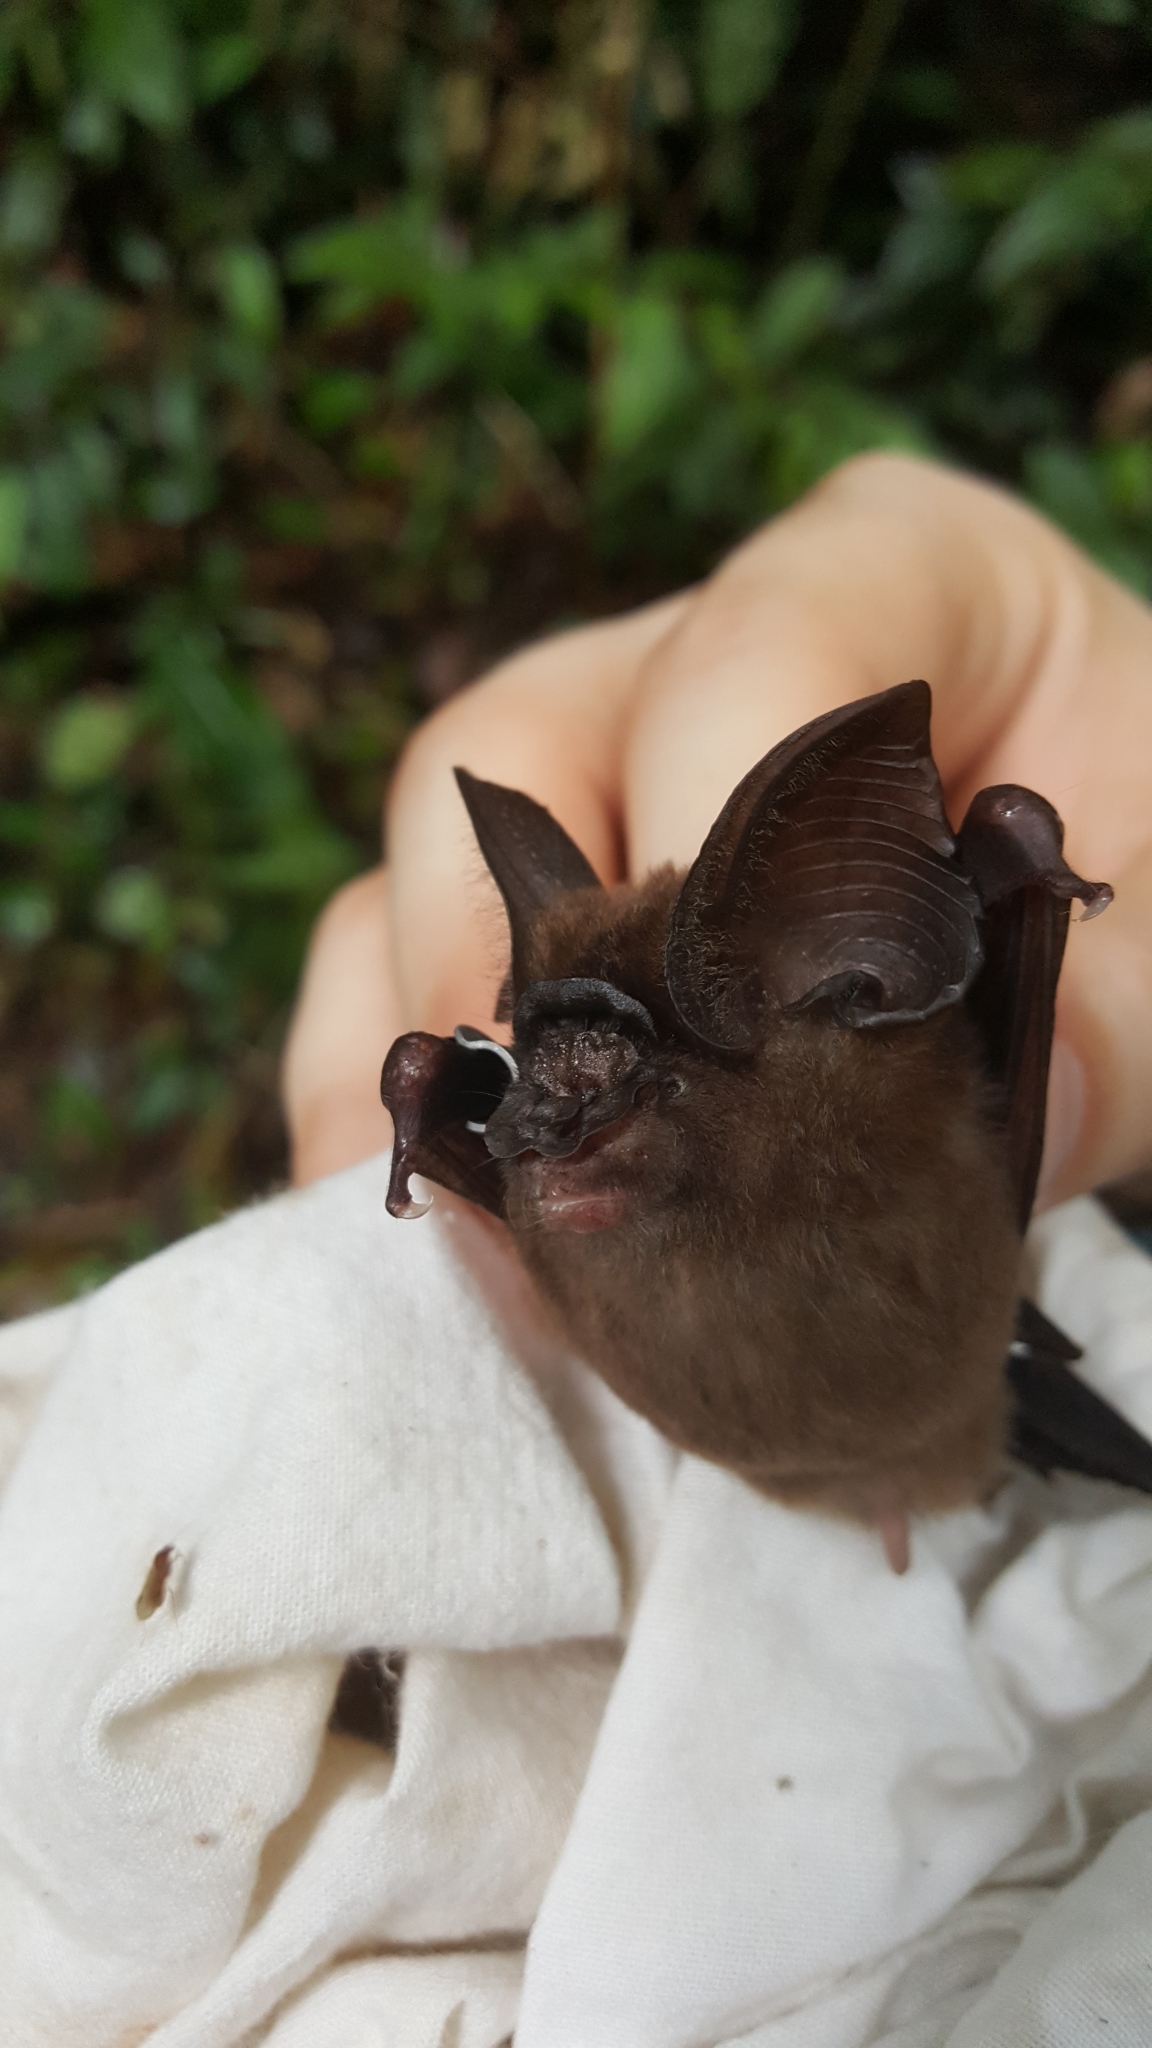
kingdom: Animalia
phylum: Chordata
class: Mammalia
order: Chiroptera
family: Hipposideridae
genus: Hipposideros
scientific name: Hipposideros ridleyi
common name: Ridley's leaf-nosed bat
